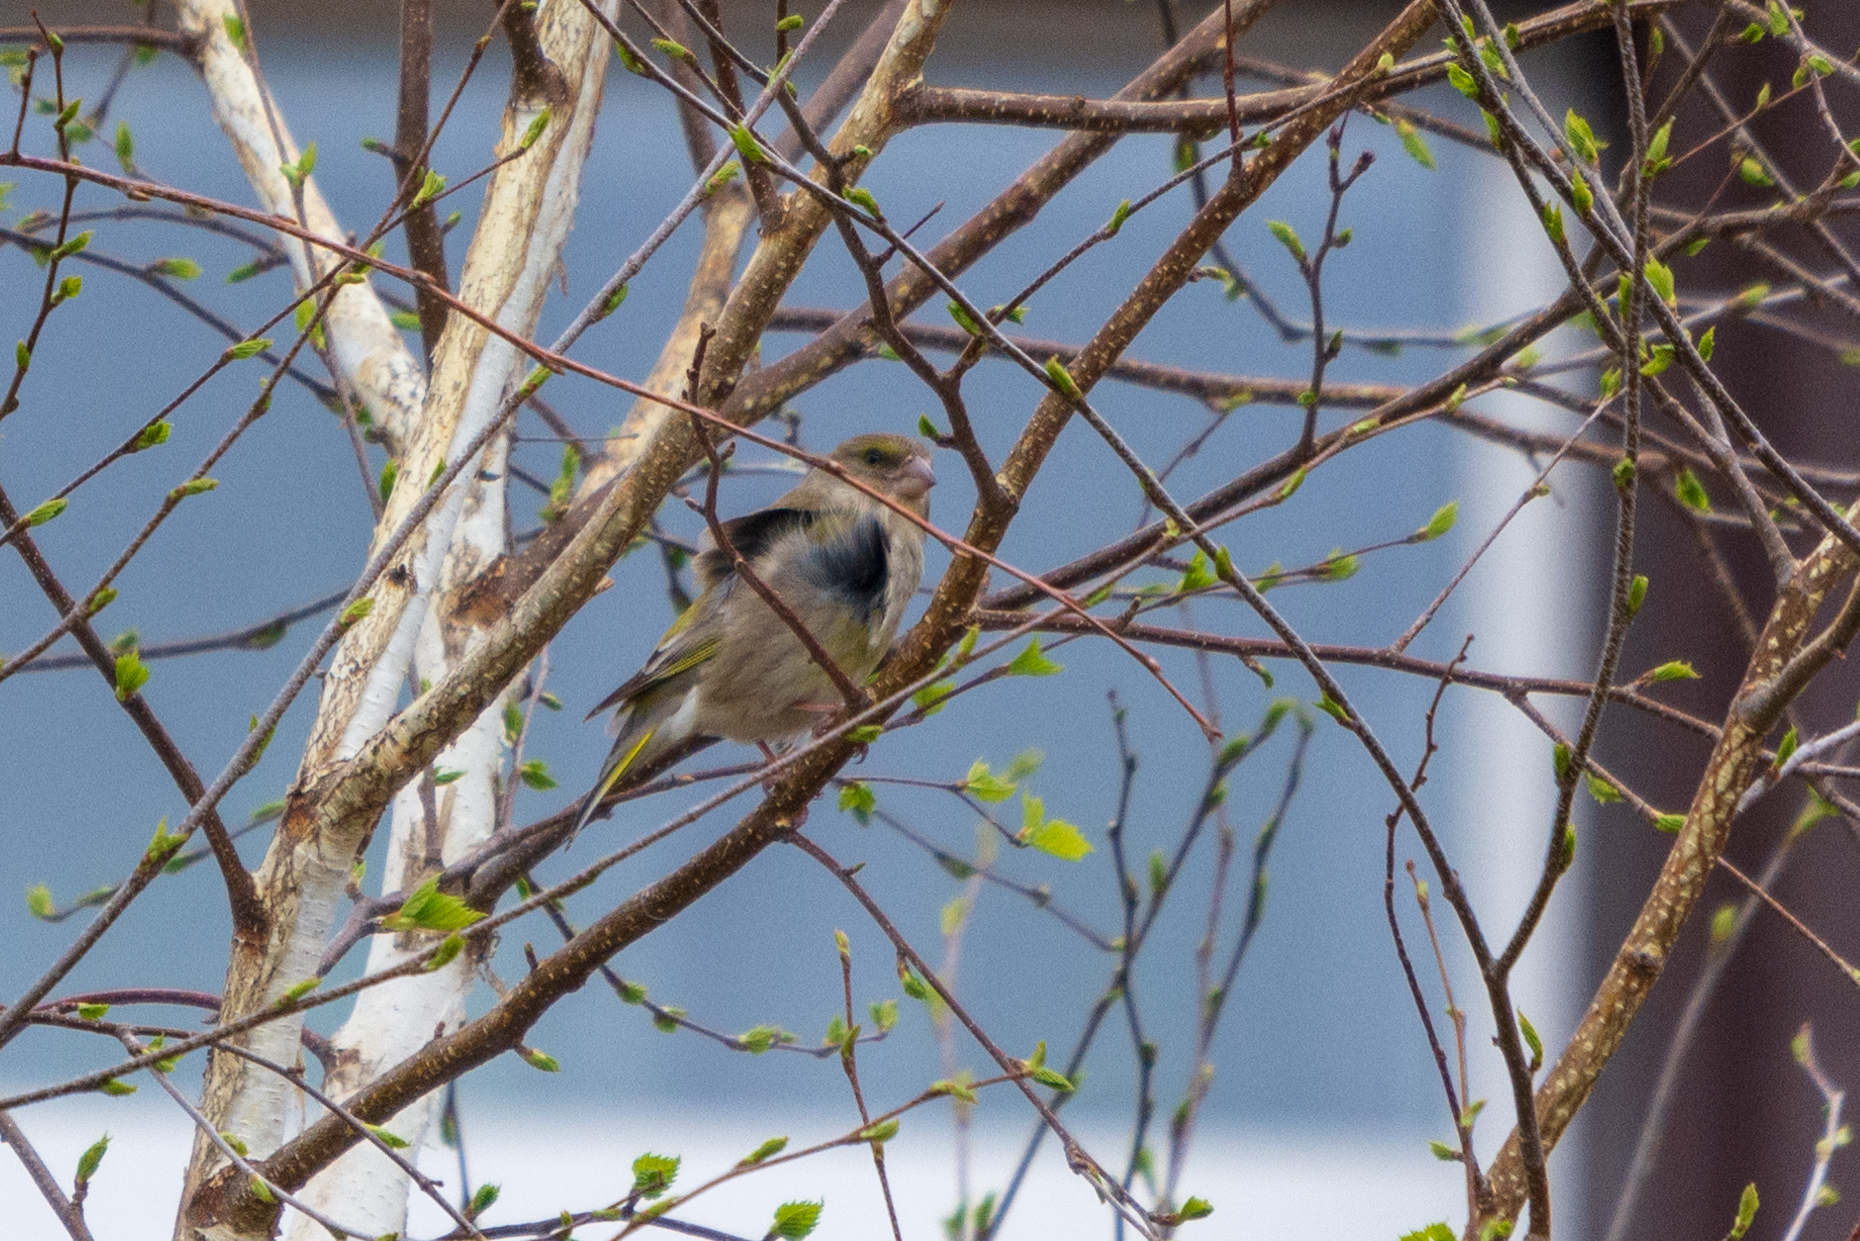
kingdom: Plantae
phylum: Tracheophyta
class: Liliopsida
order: Poales
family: Poaceae
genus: Chloris
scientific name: Chloris chloris
